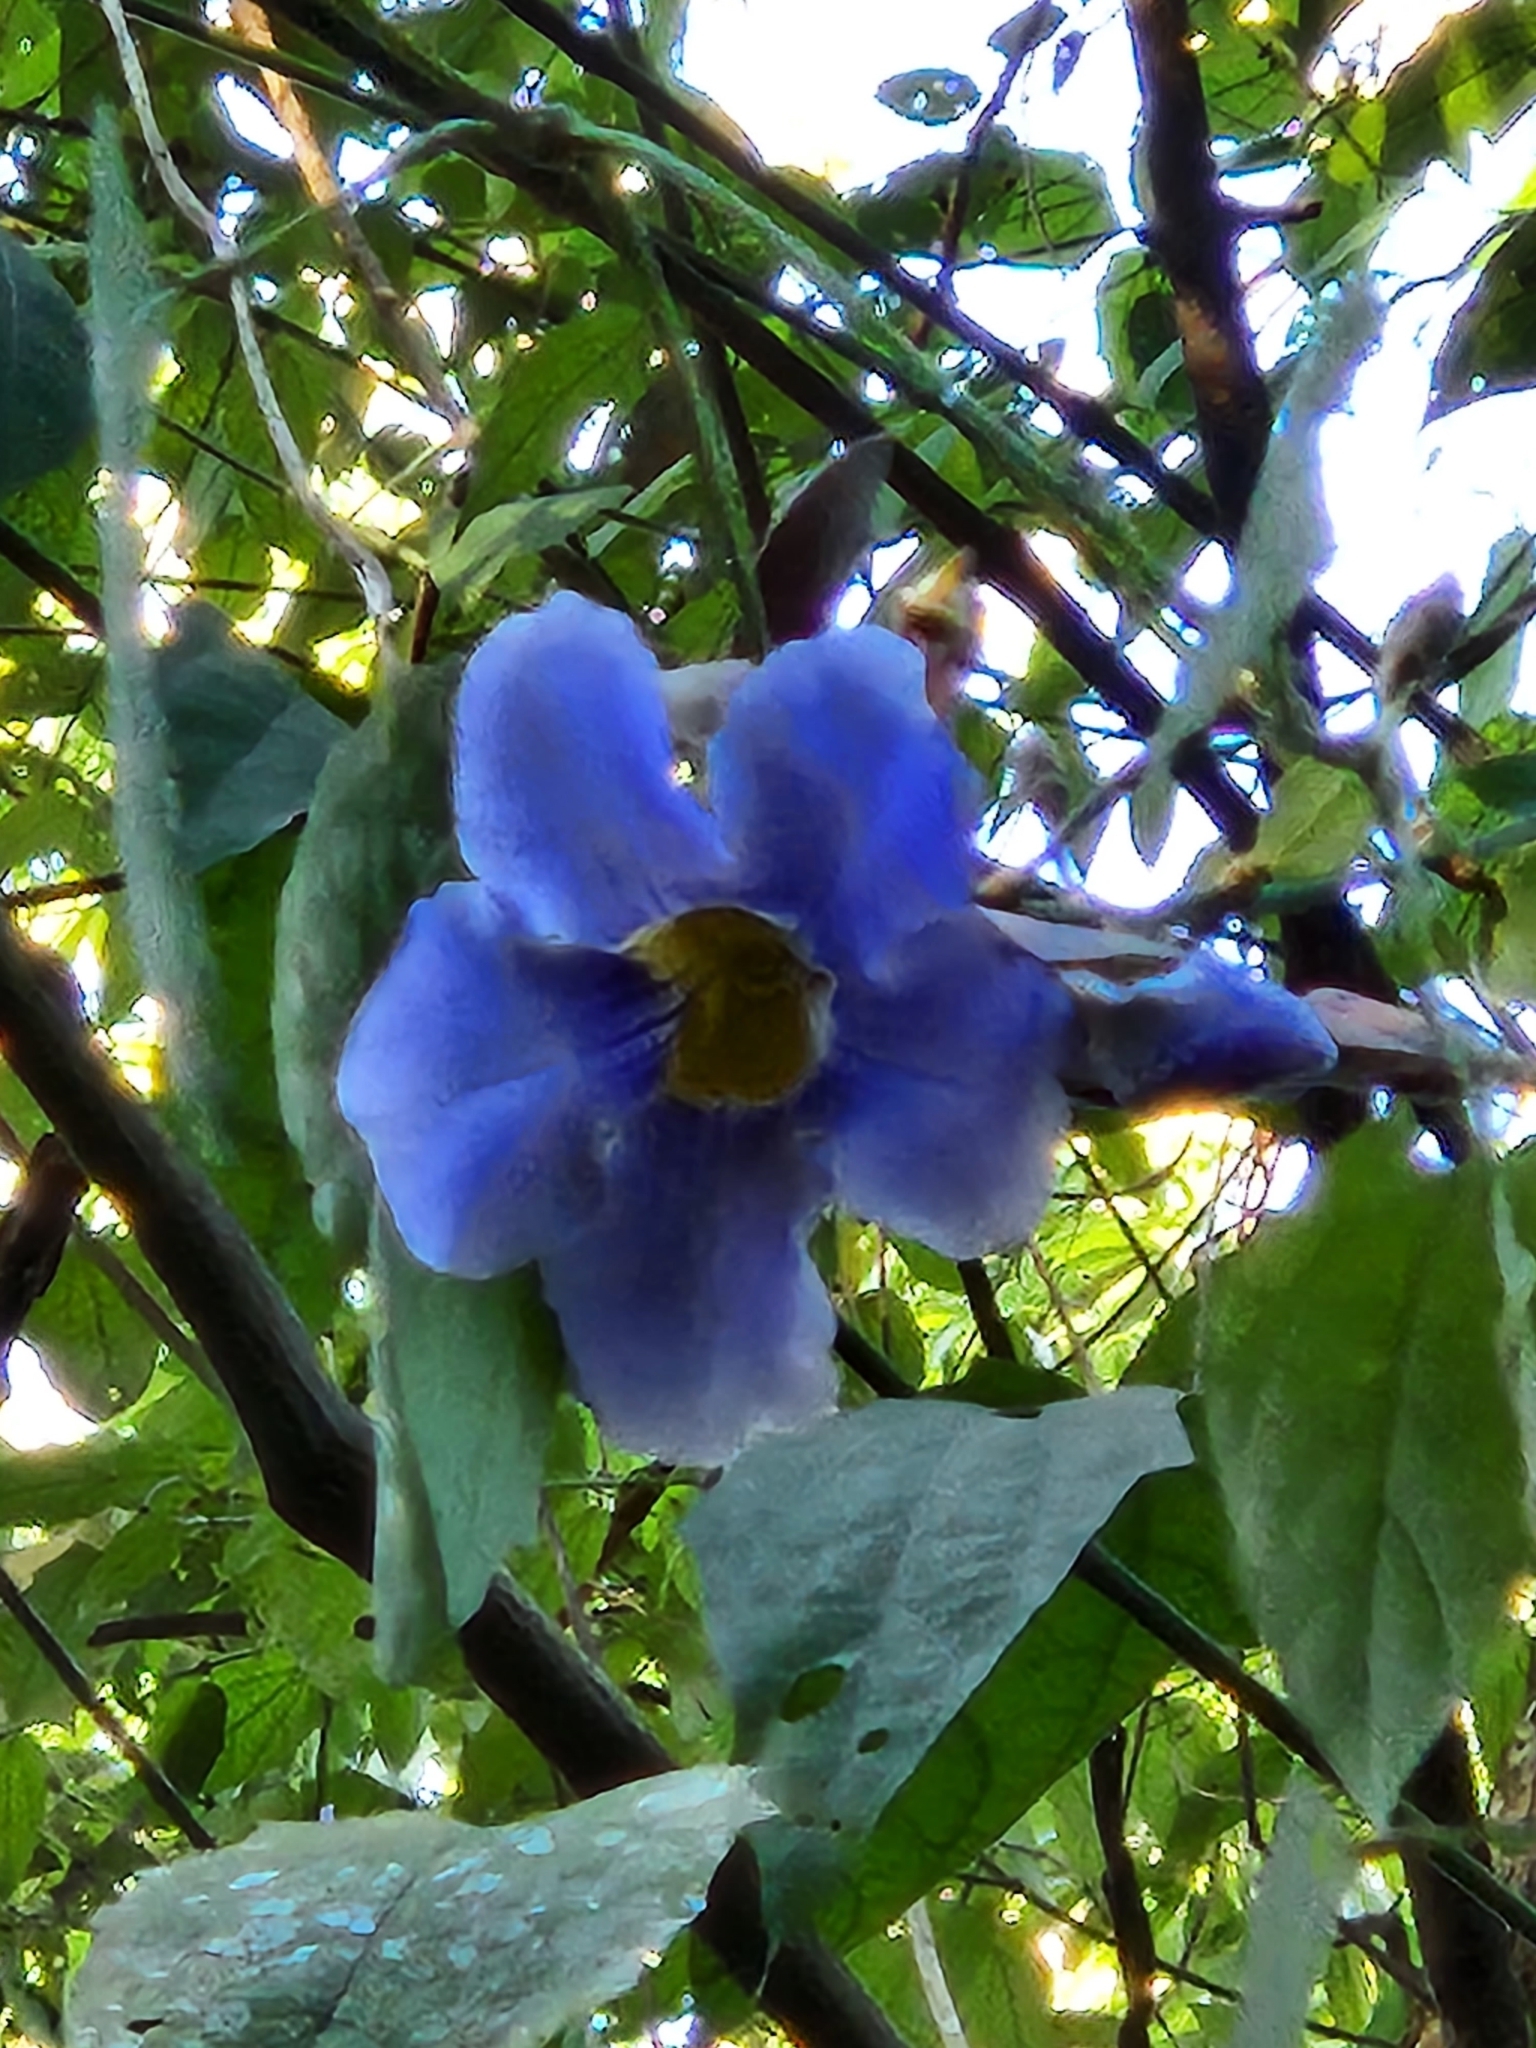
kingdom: Plantae
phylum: Tracheophyta
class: Magnoliopsida
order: Lamiales
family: Acanthaceae
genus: Thunbergia
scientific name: Thunbergia grandiflora
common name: Bengal trumpet
